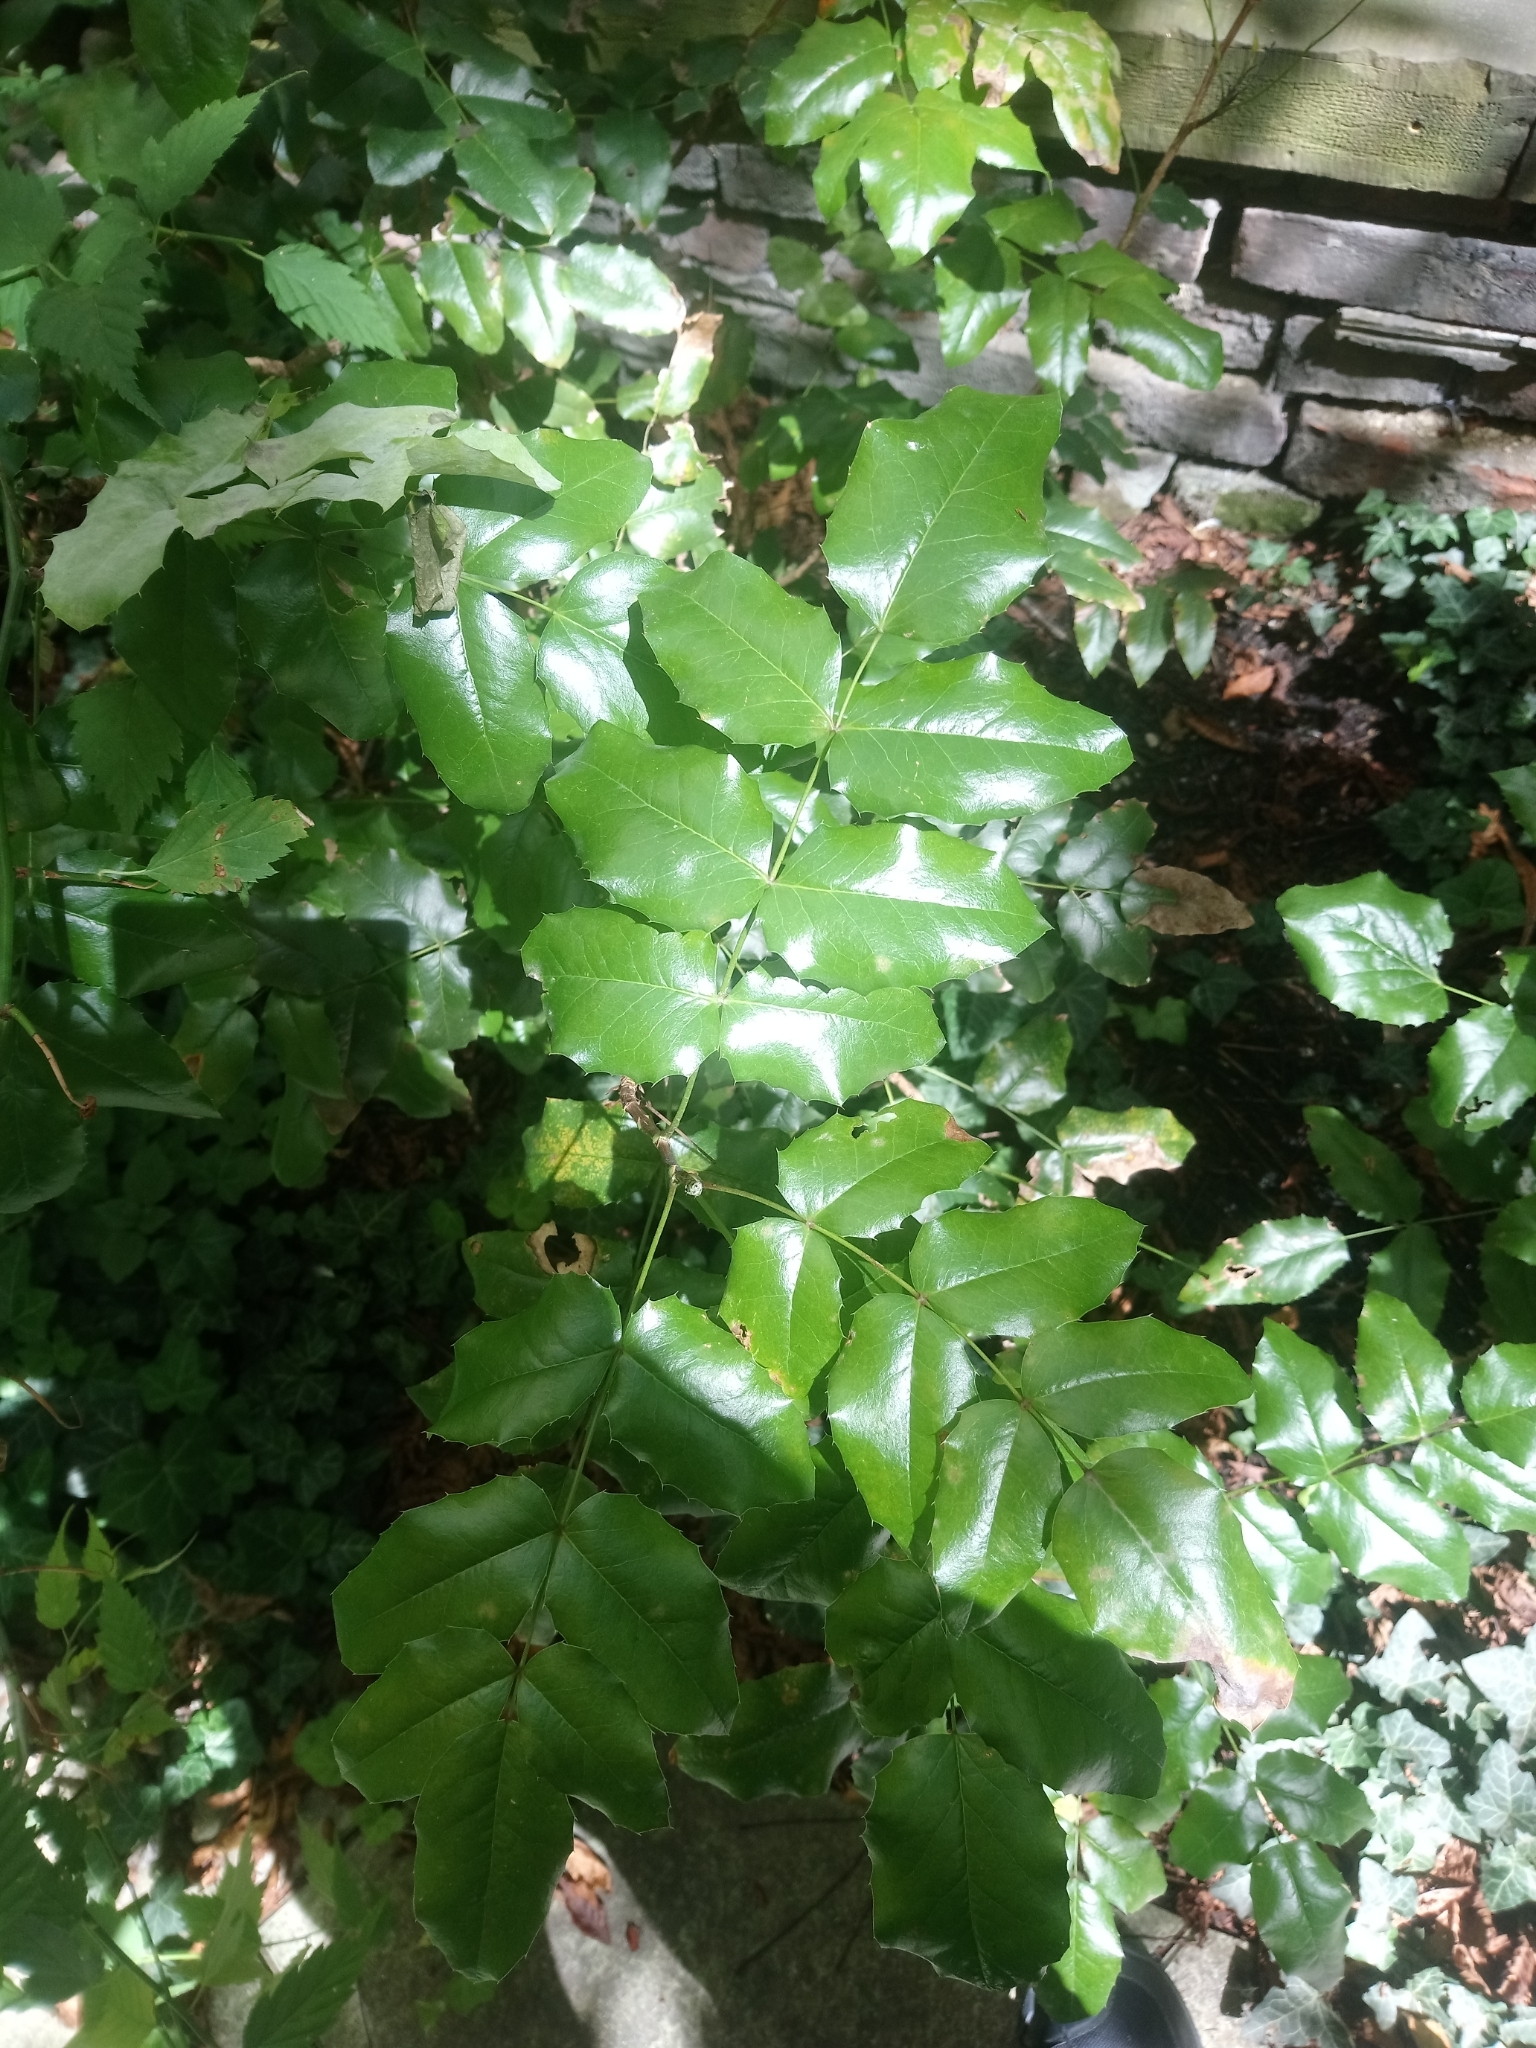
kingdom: Plantae
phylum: Tracheophyta
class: Magnoliopsida
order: Ranunculales
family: Berberidaceae
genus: Mahonia
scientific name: Mahonia aquifolium
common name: Oregon-grape
